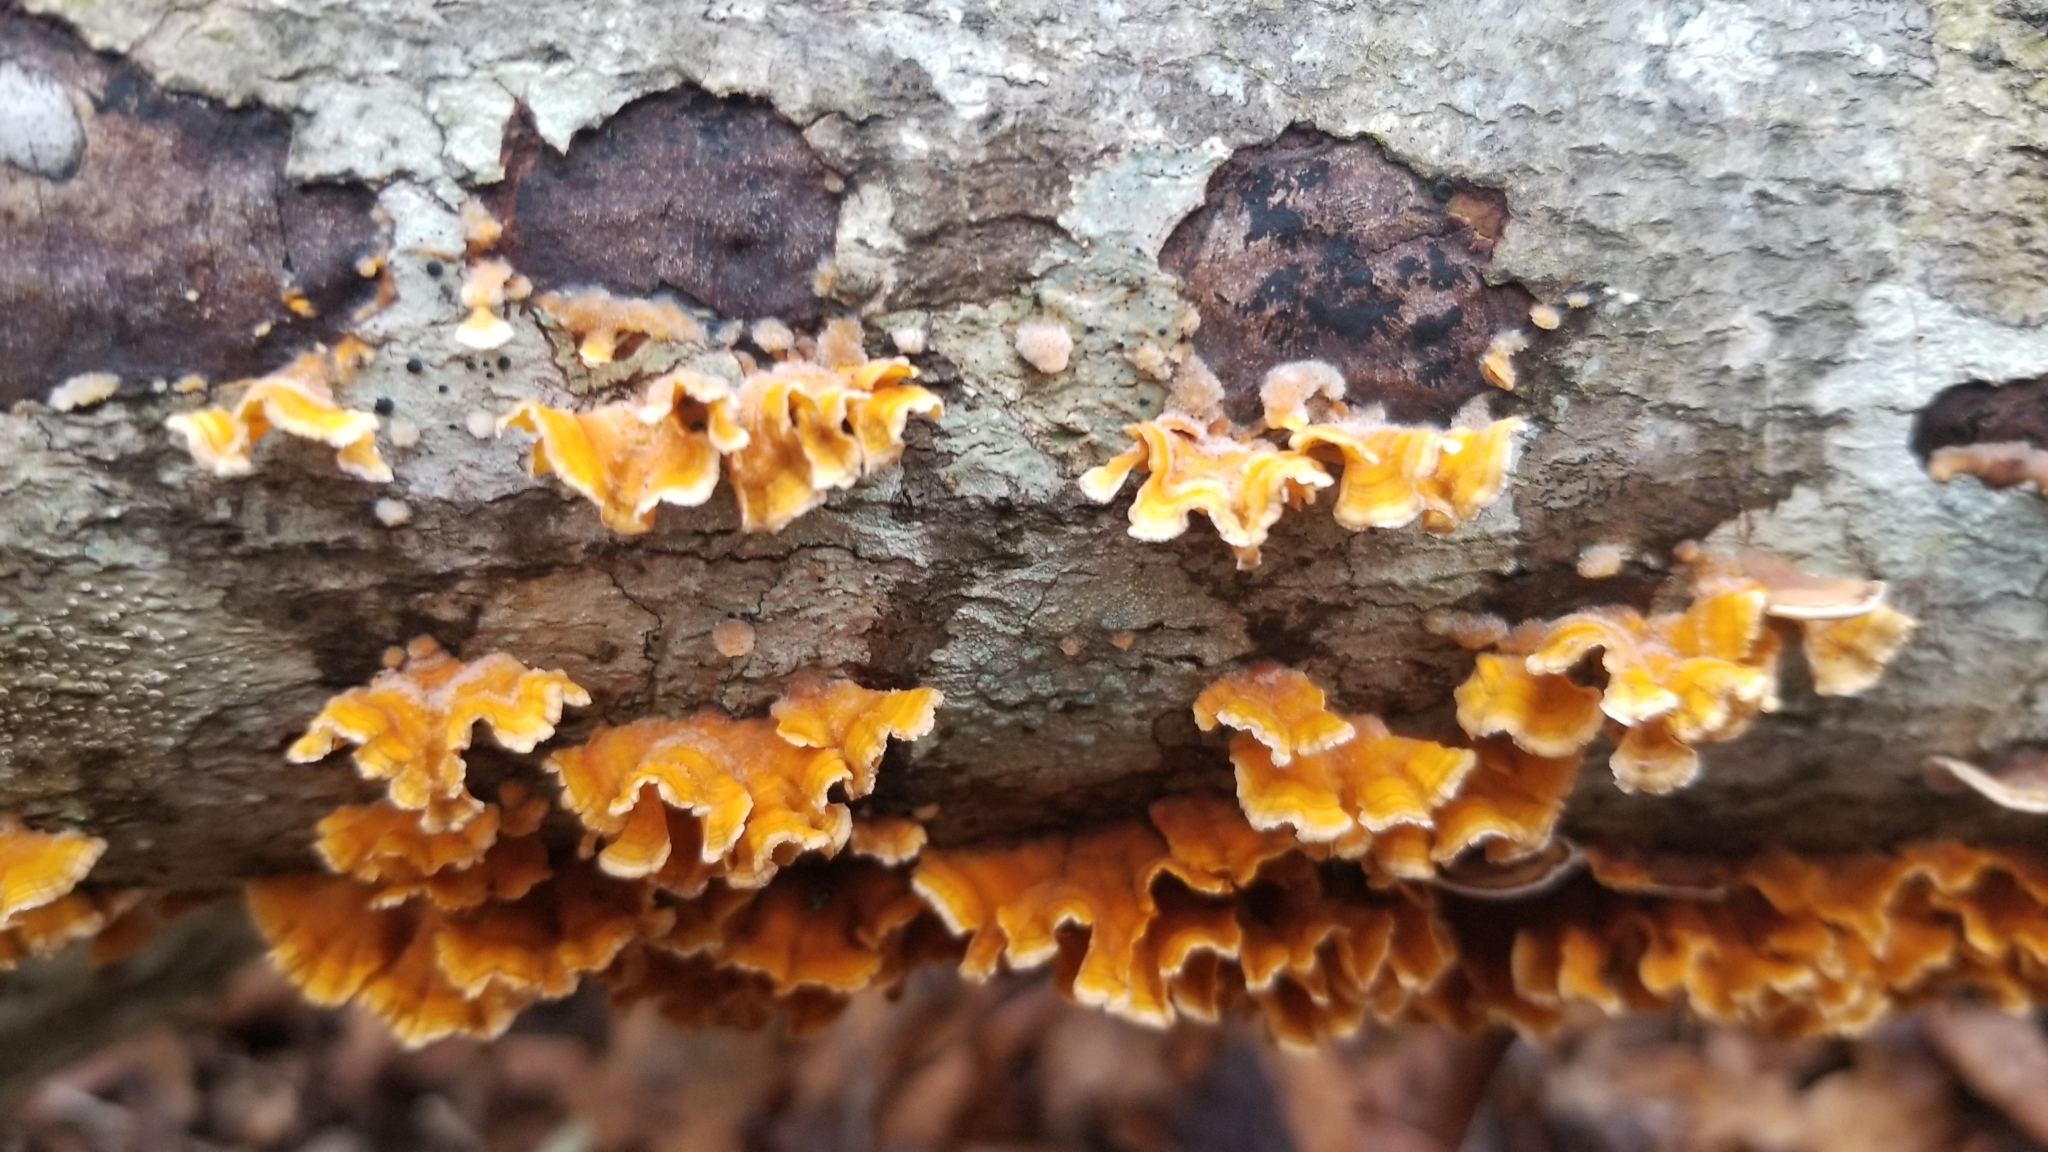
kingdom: Fungi
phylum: Basidiomycota
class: Agaricomycetes
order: Russulales
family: Stereaceae
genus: Stereum
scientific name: Stereum complicatum
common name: Crowded parchment
